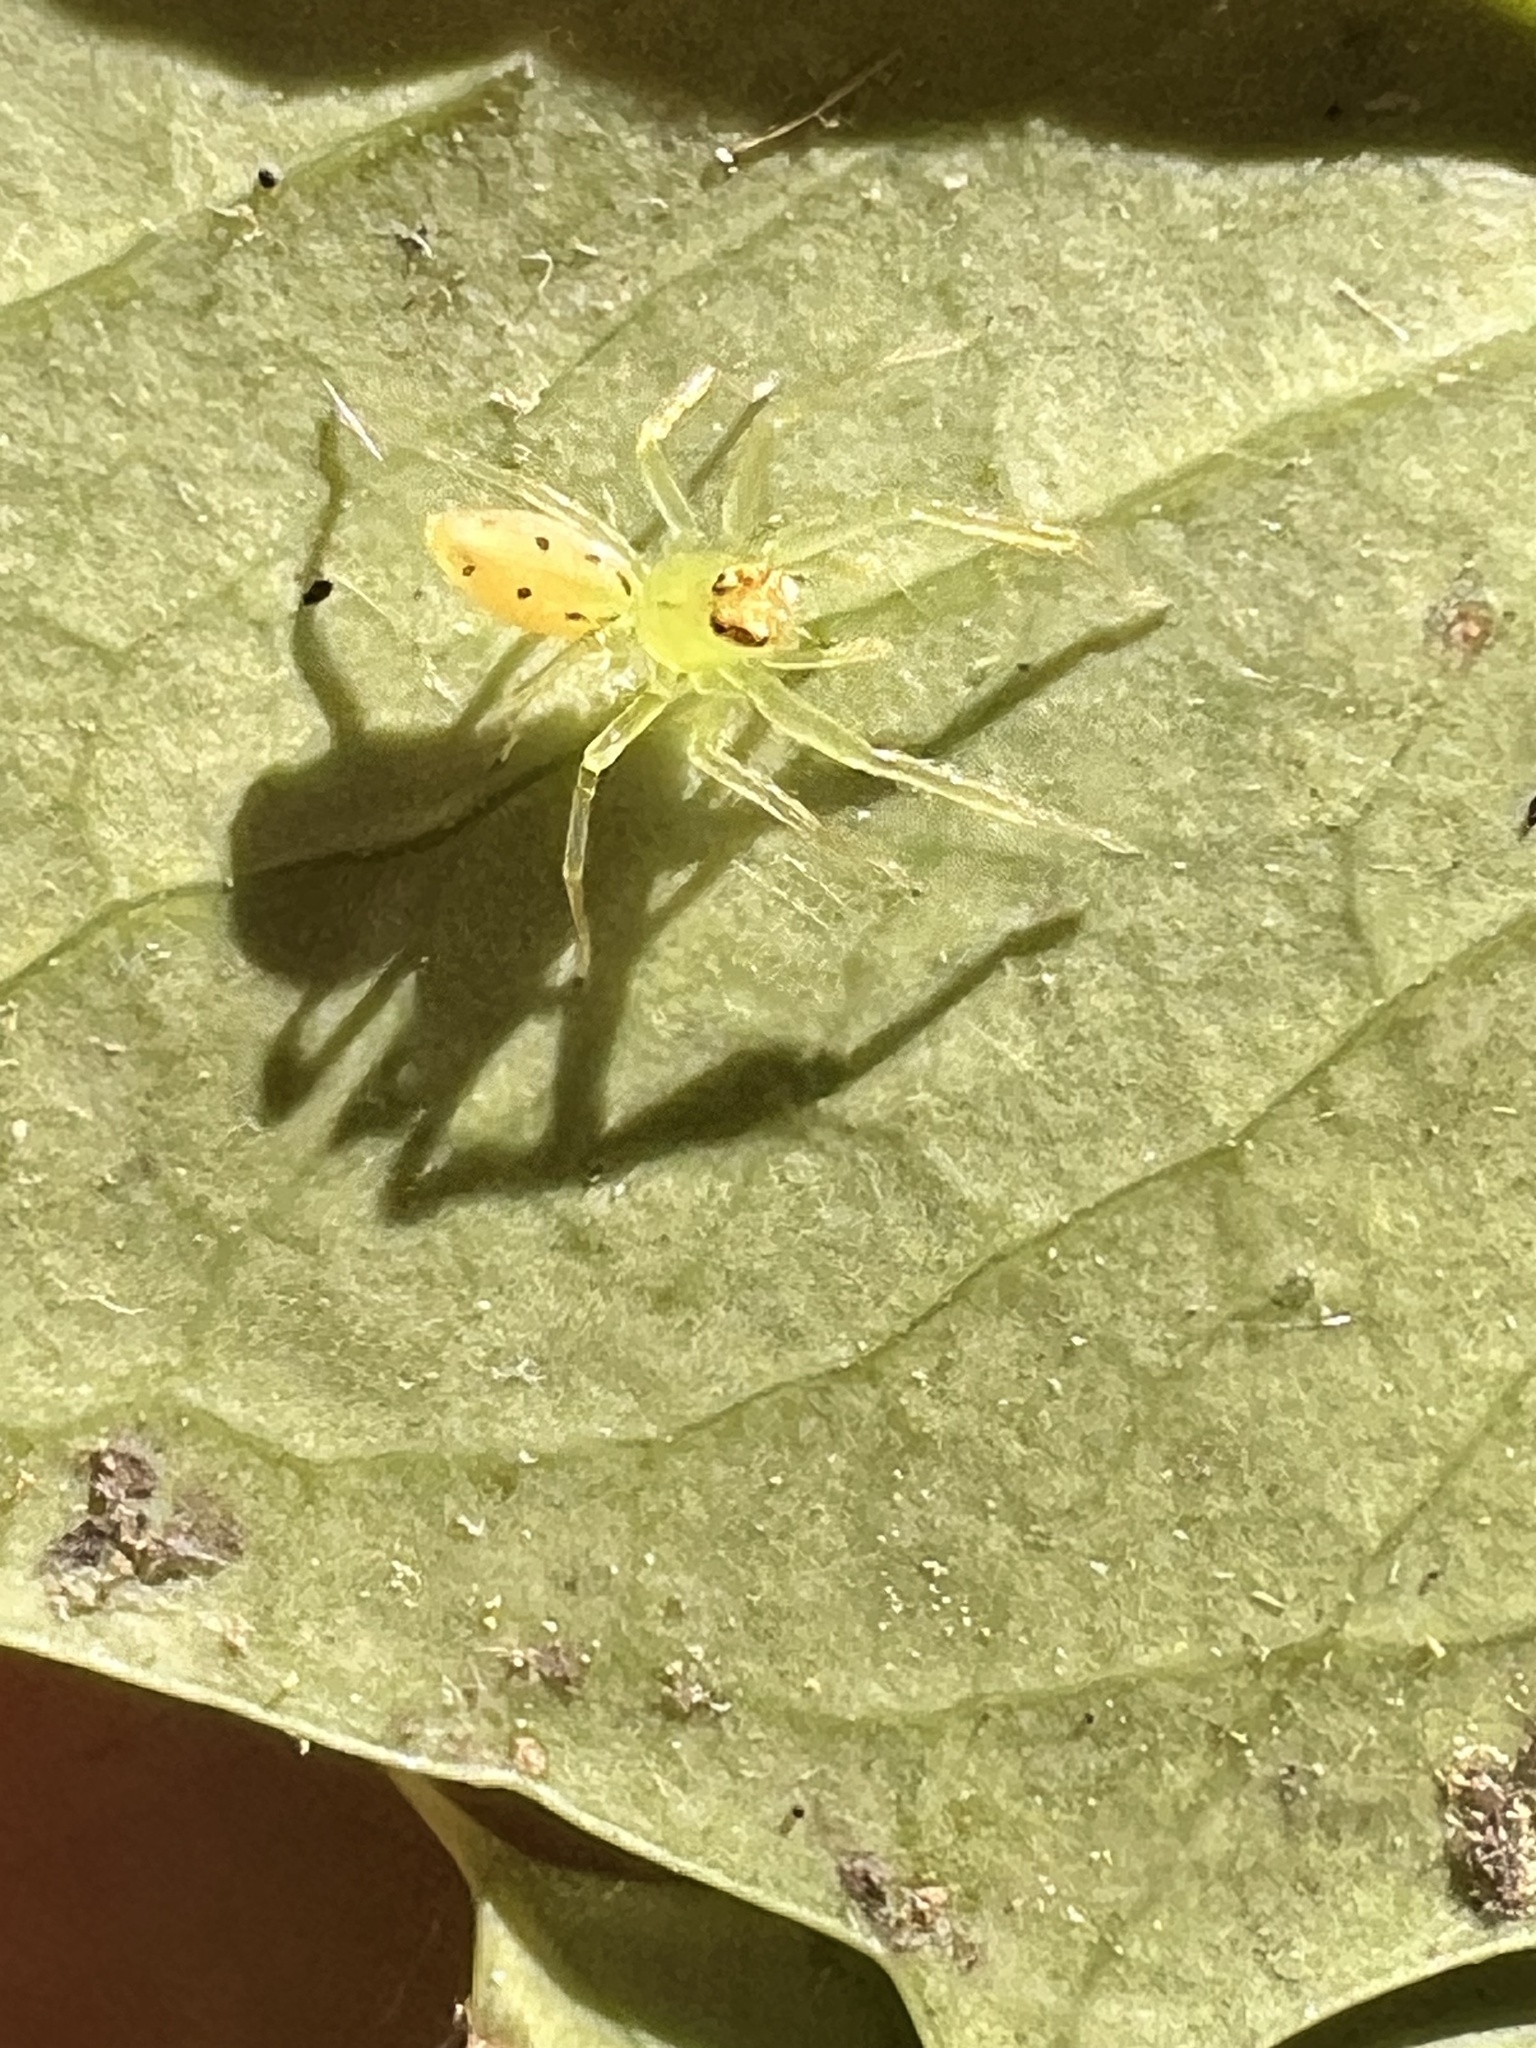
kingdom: Animalia
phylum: Arthropoda
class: Arachnida
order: Araneae
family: Salticidae
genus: Lyssomanes
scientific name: Lyssomanes viridis
